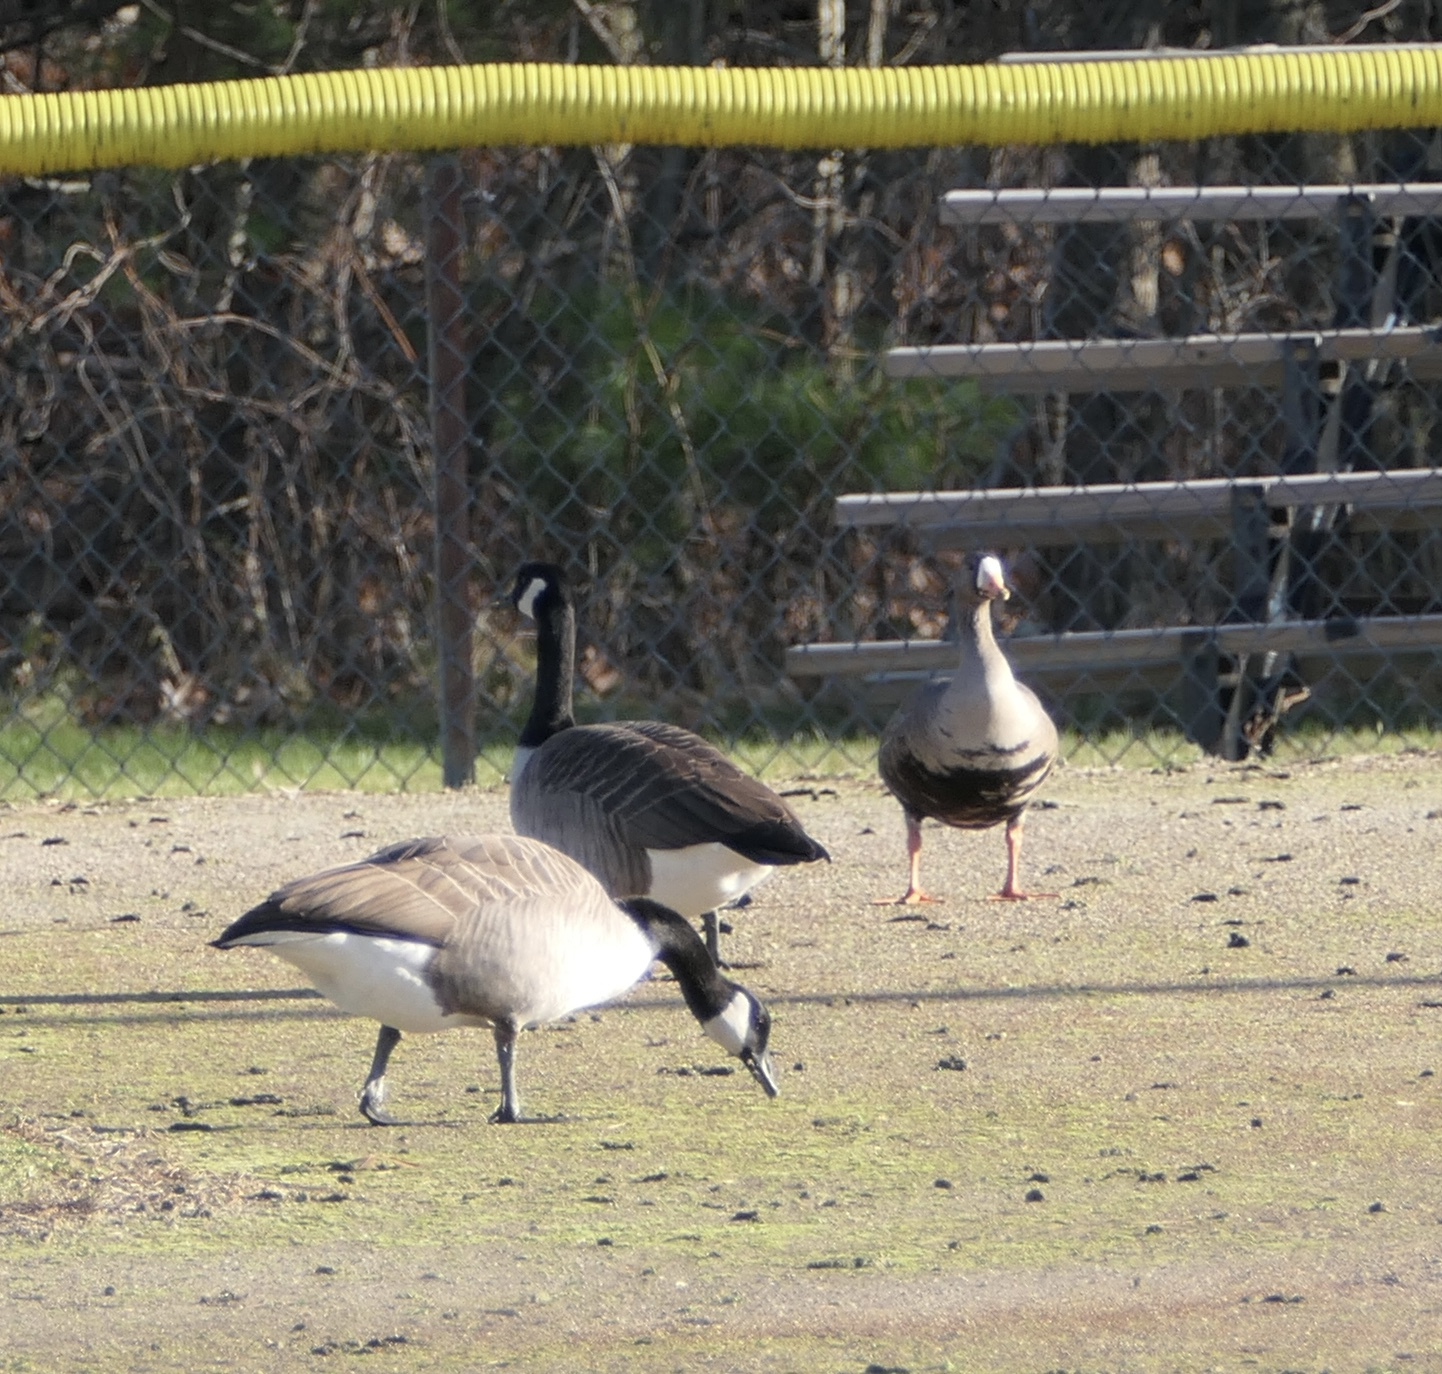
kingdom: Animalia
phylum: Chordata
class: Aves
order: Anseriformes
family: Anatidae
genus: Anser
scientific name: Anser albifrons
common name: Greater white-fronted goose
